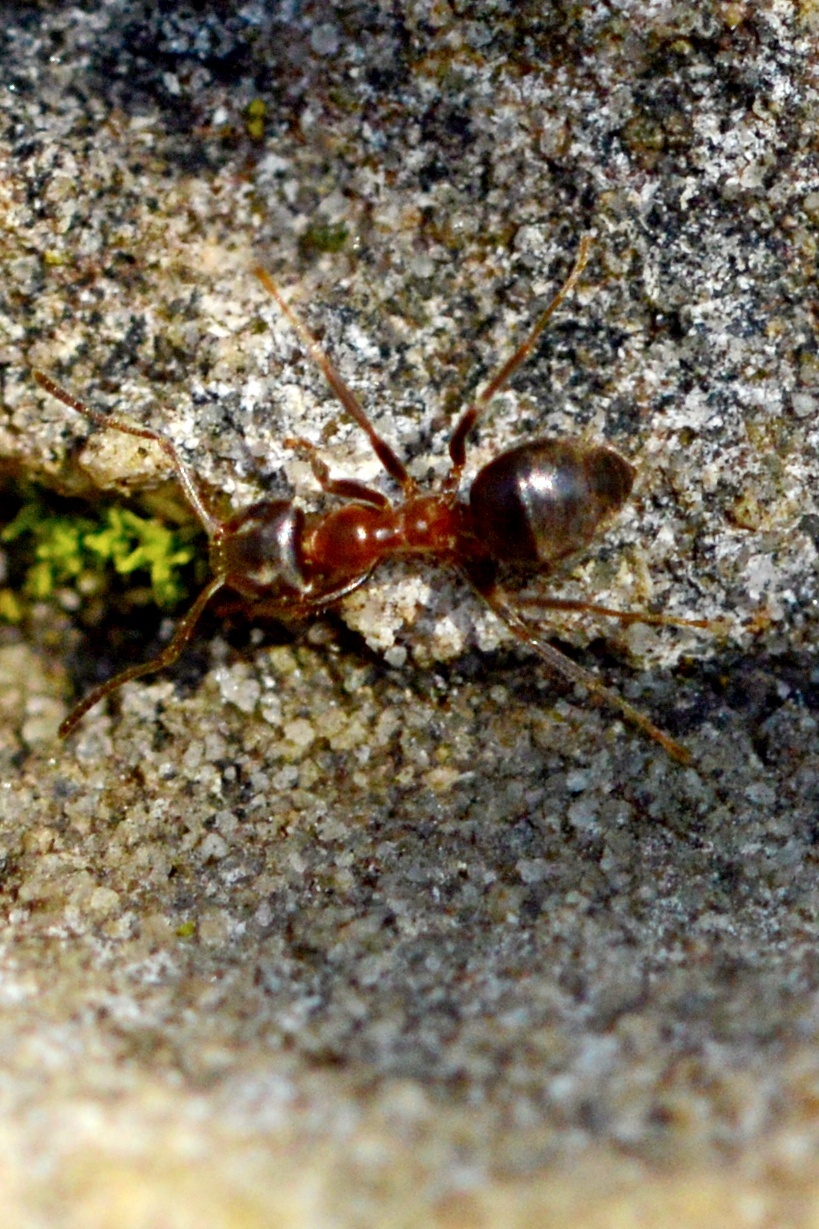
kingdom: Animalia
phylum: Arthropoda
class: Insecta
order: Hymenoptera
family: Formicidae
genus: Lasius
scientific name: Lasius emarginatus
